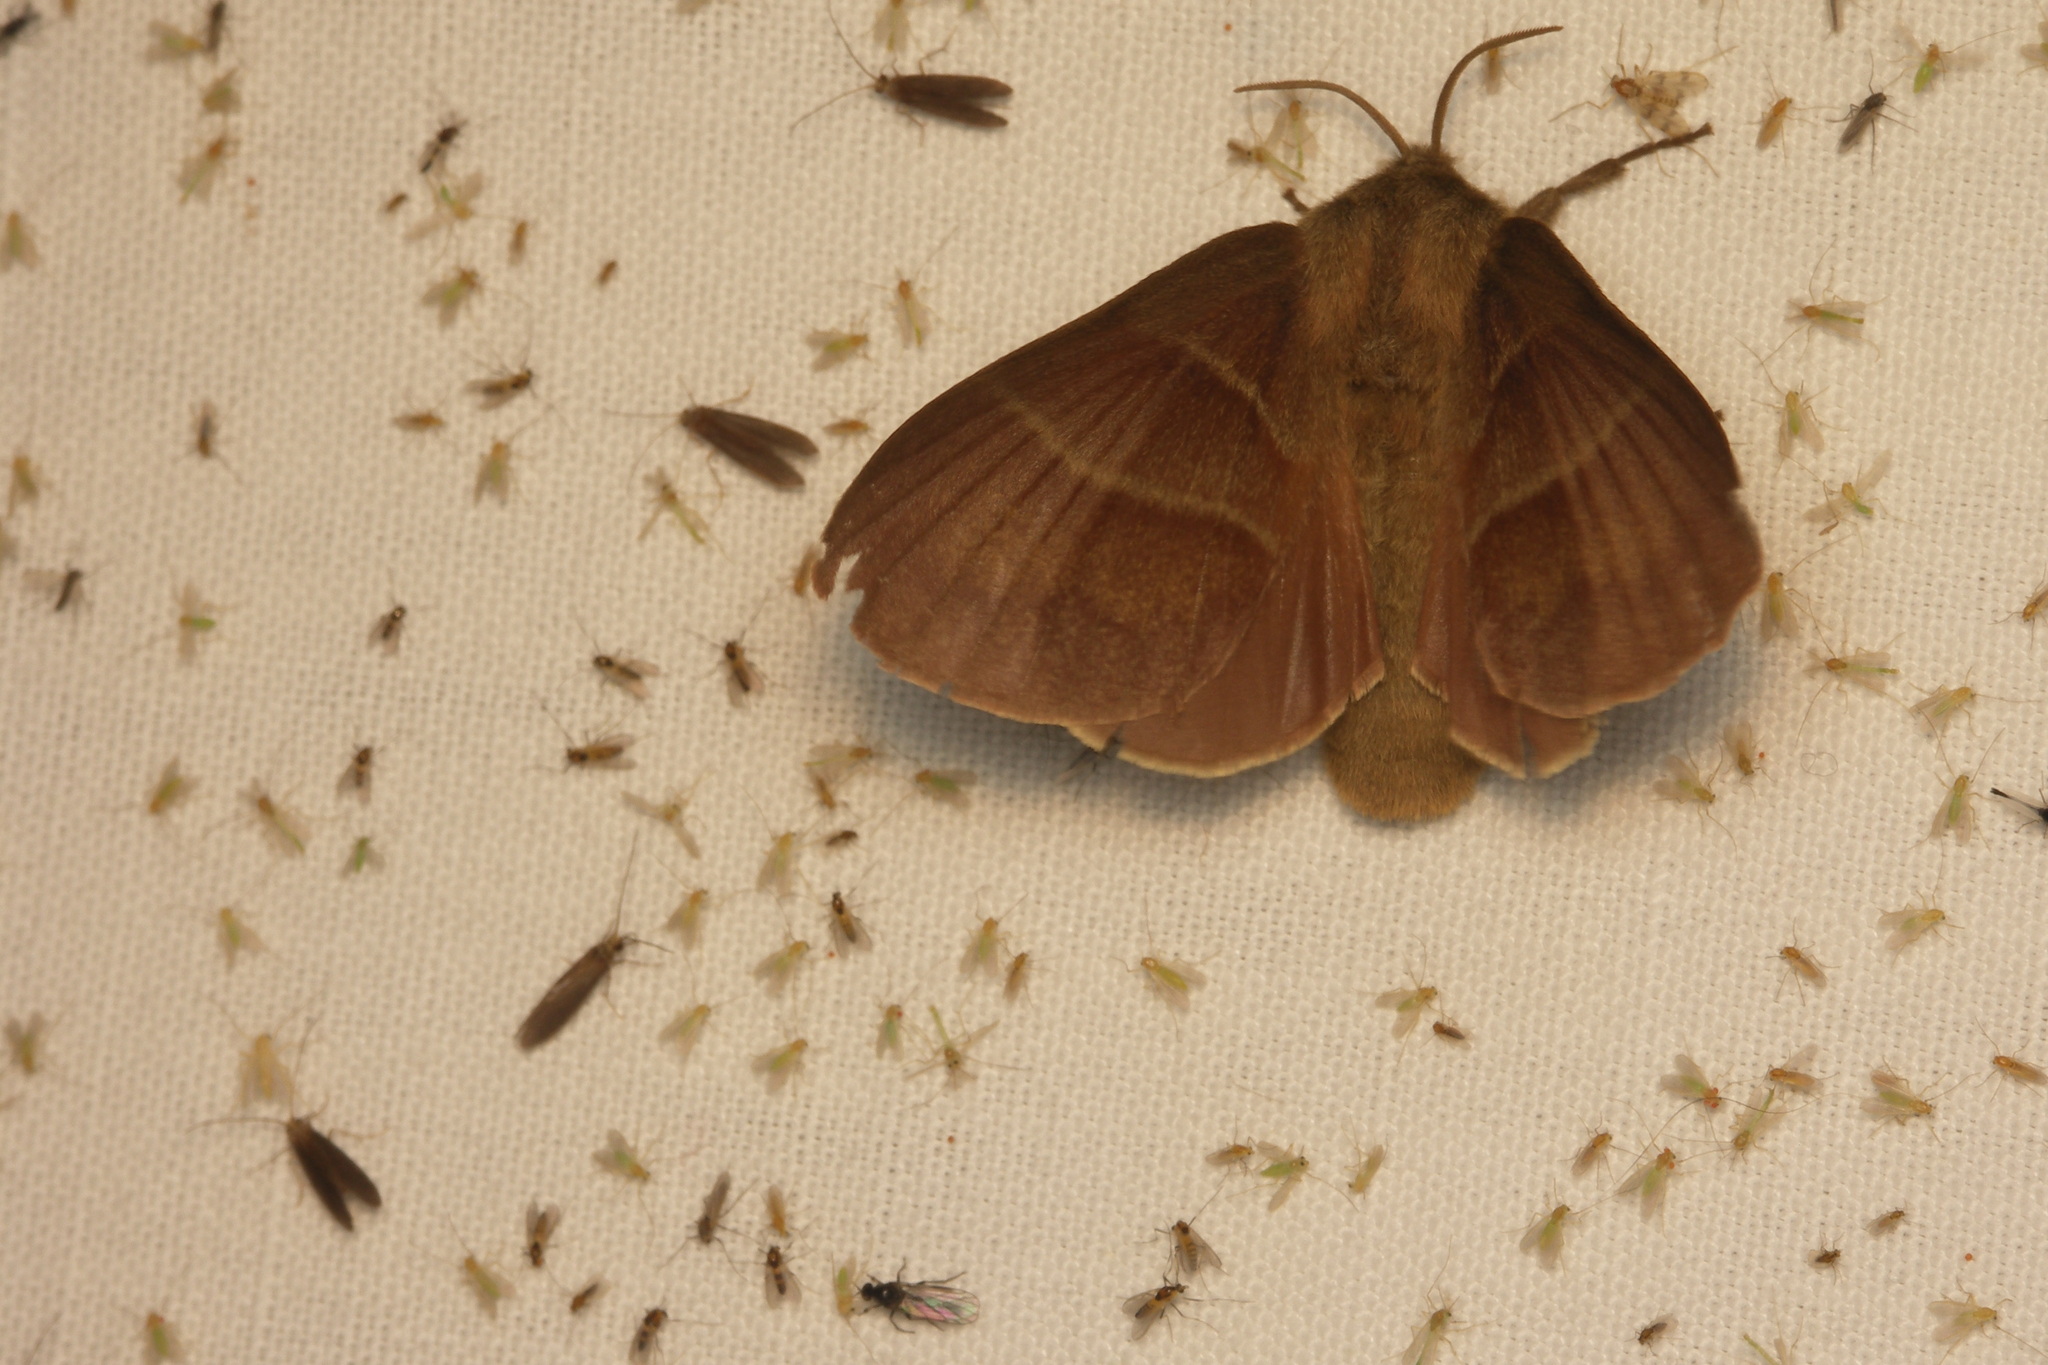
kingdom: Animalia
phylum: Arthropoda
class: Insecta
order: Lepidoptera
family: Lasiocampidae
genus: Macrothylacia
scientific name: Macrothylacia rubi
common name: Fox moth
